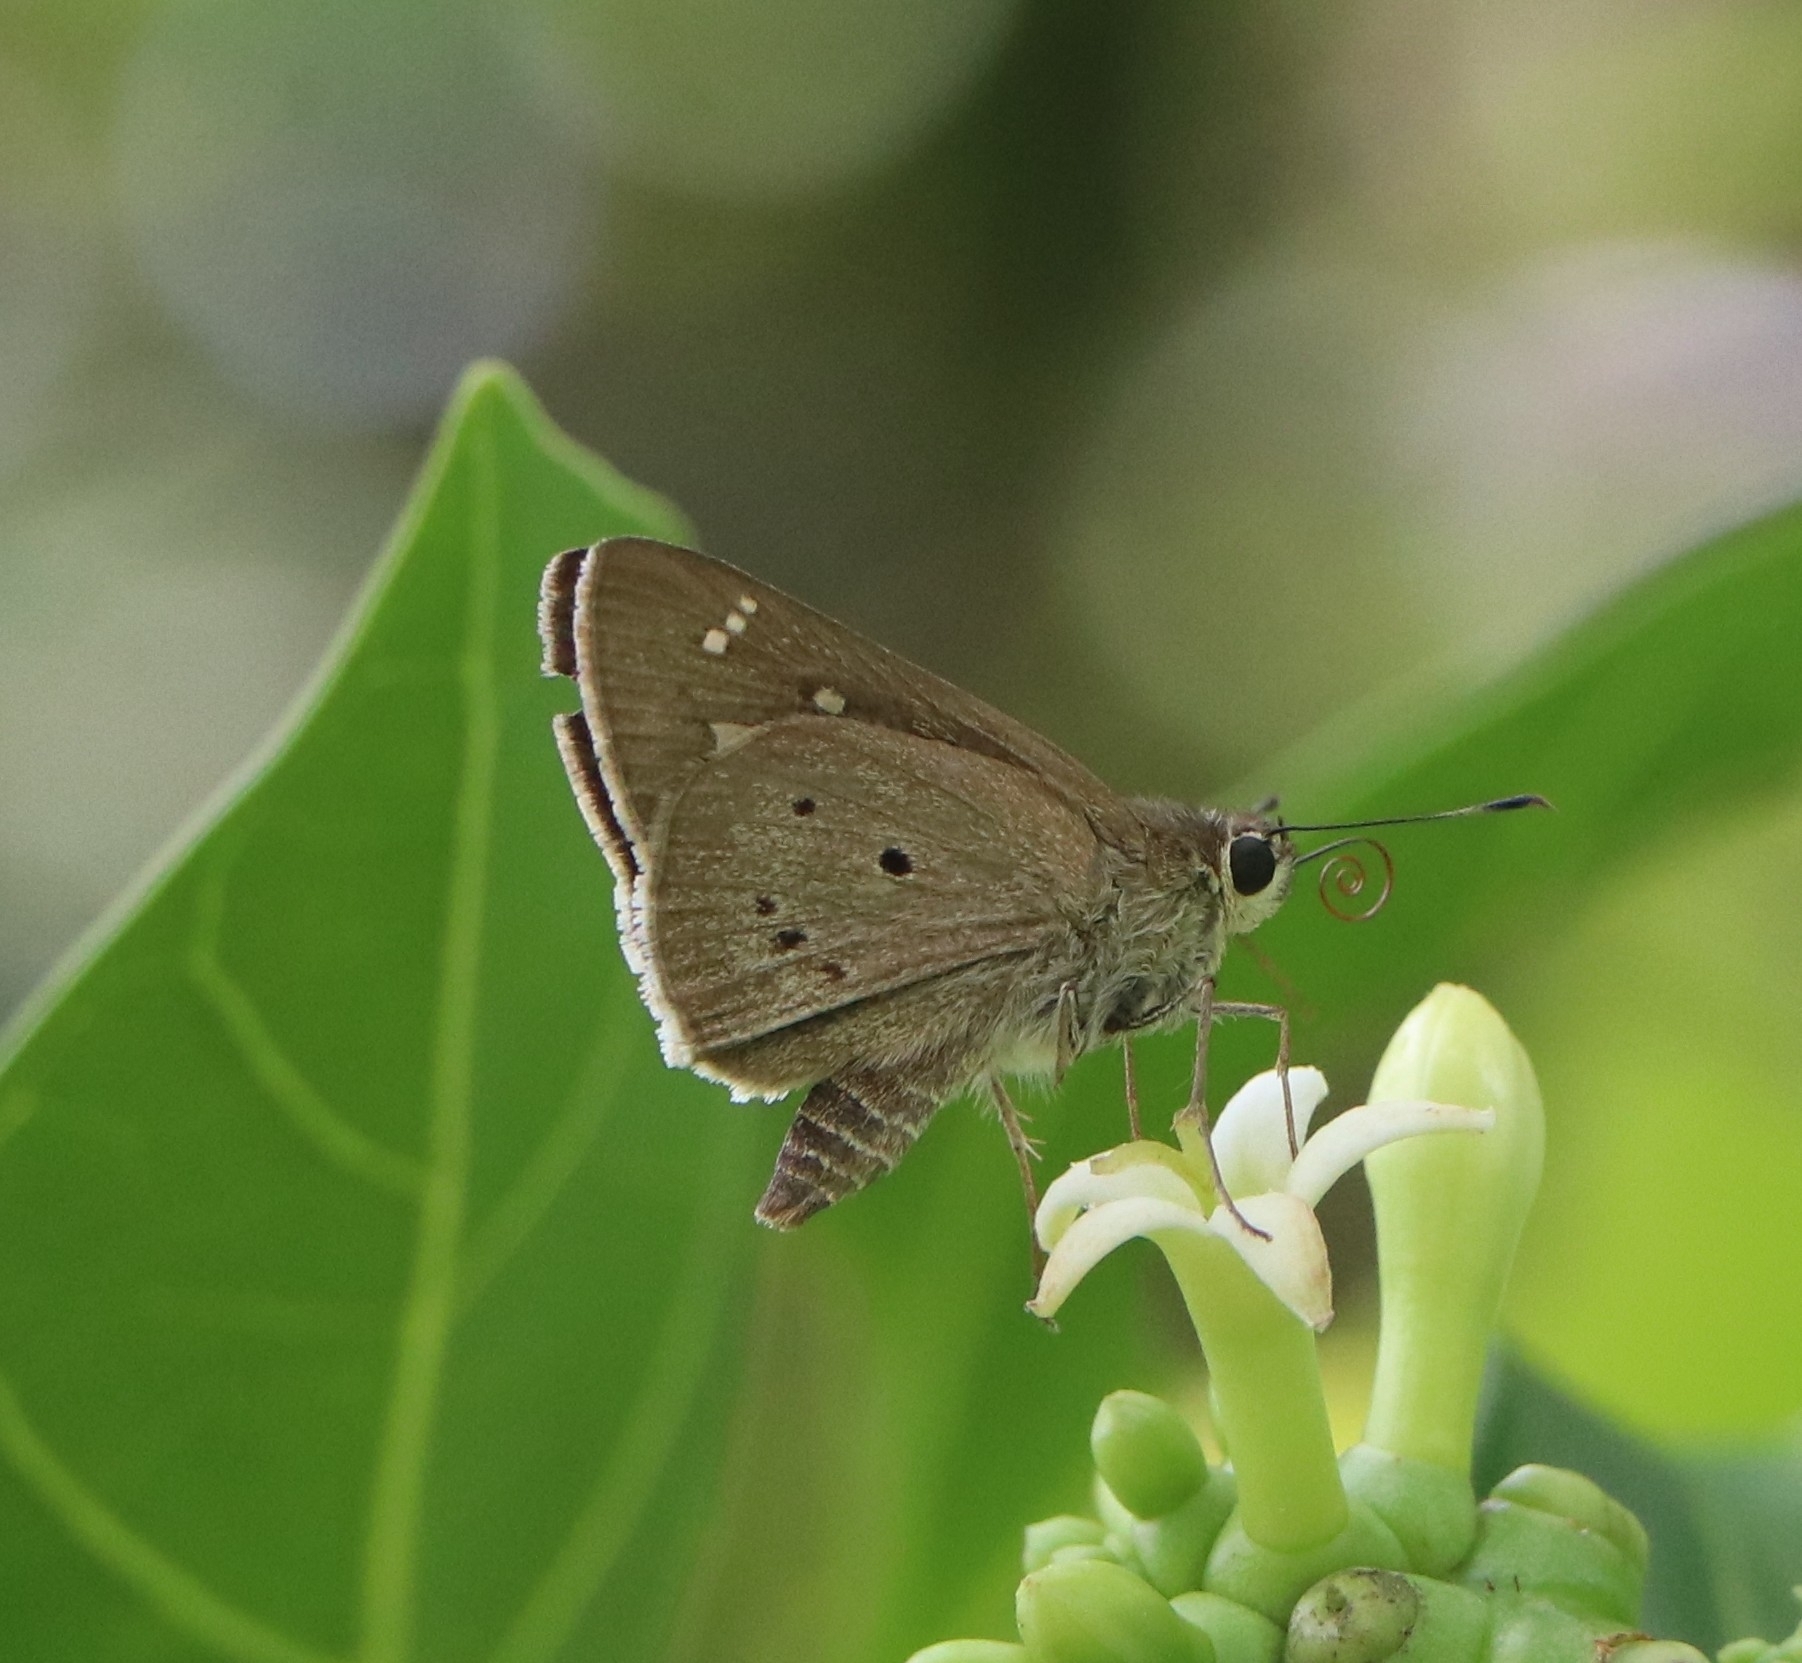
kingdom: Animalia
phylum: Arthropoda
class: Insecta
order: Lepidoptera
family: Hesperiidae
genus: Suastus
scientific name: Suastus gremius
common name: Indian palm bob
